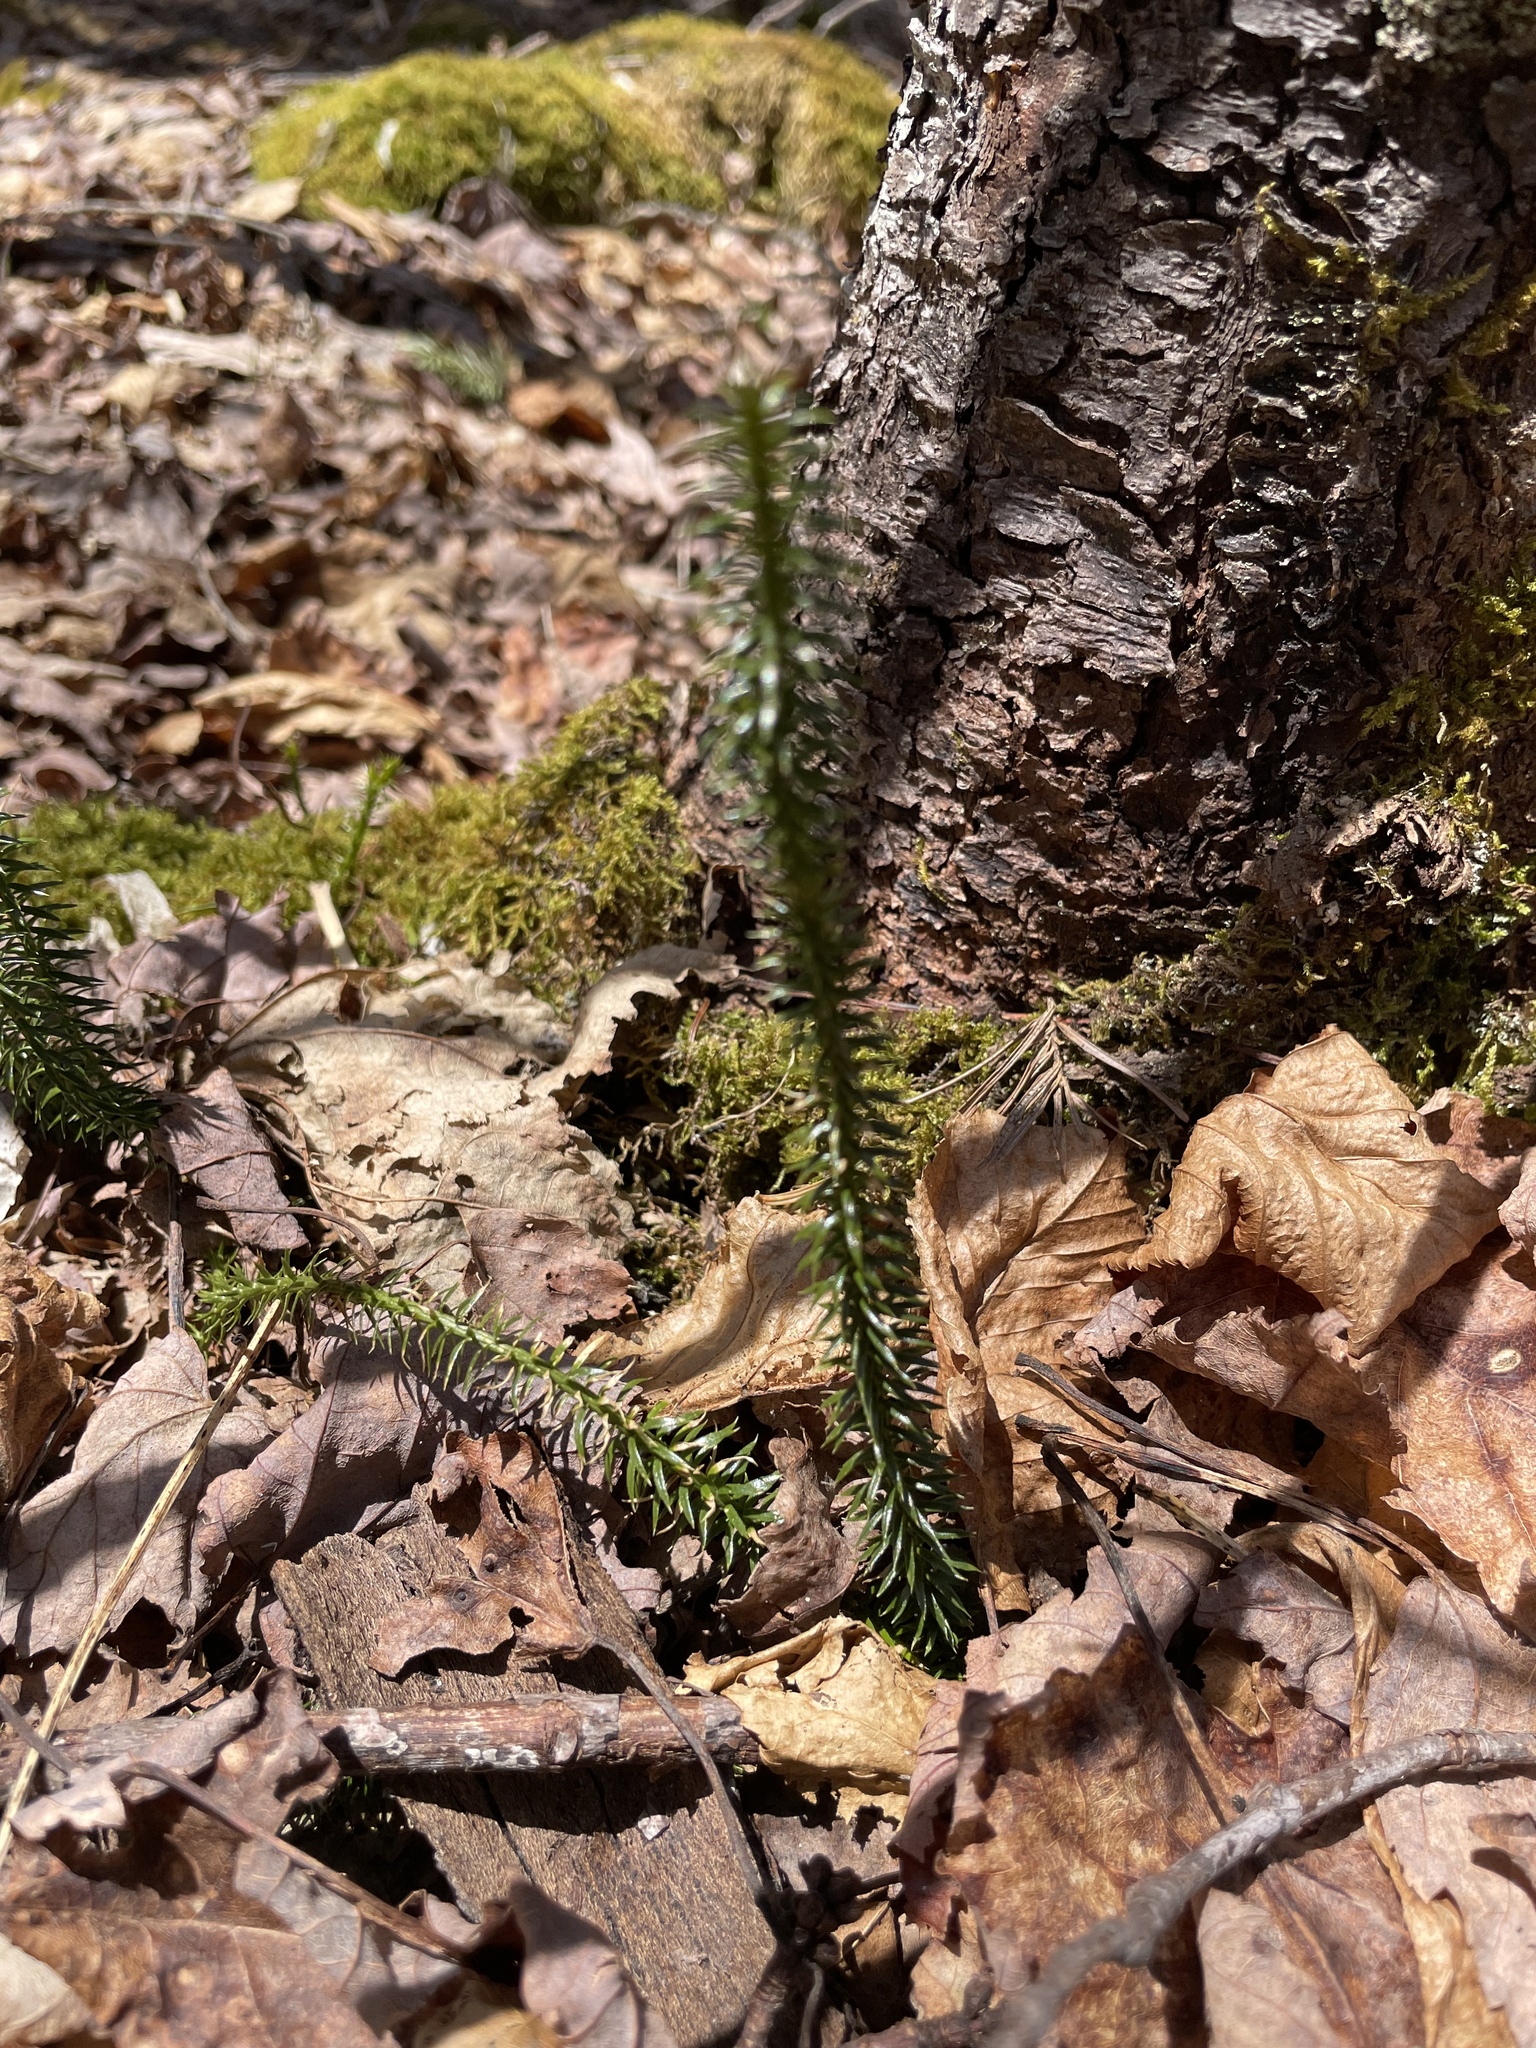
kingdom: Plantae
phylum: Tracheophyta
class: Lycopodiopsida
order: Lycopodiales
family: Lycopodiaceae
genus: Spinulum
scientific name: Spinulum annotinum
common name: Interrupted club-moss
